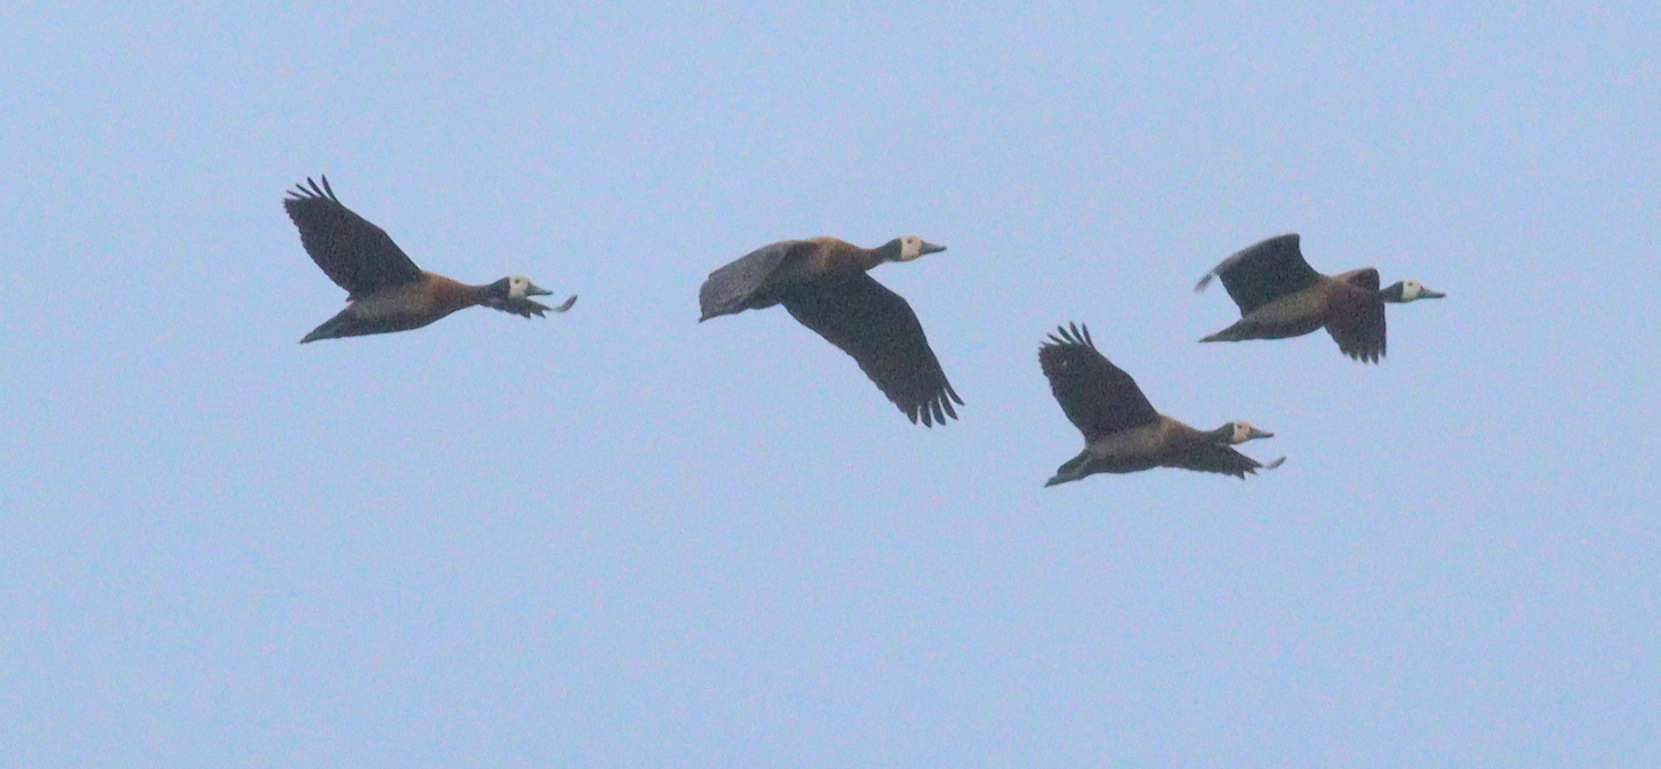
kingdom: Animalia
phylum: Chordata
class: Aves
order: Anseriformes
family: Anatidae
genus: Dendrocygna
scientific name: Dendrocygna viduata
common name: White-faced whistling duck
